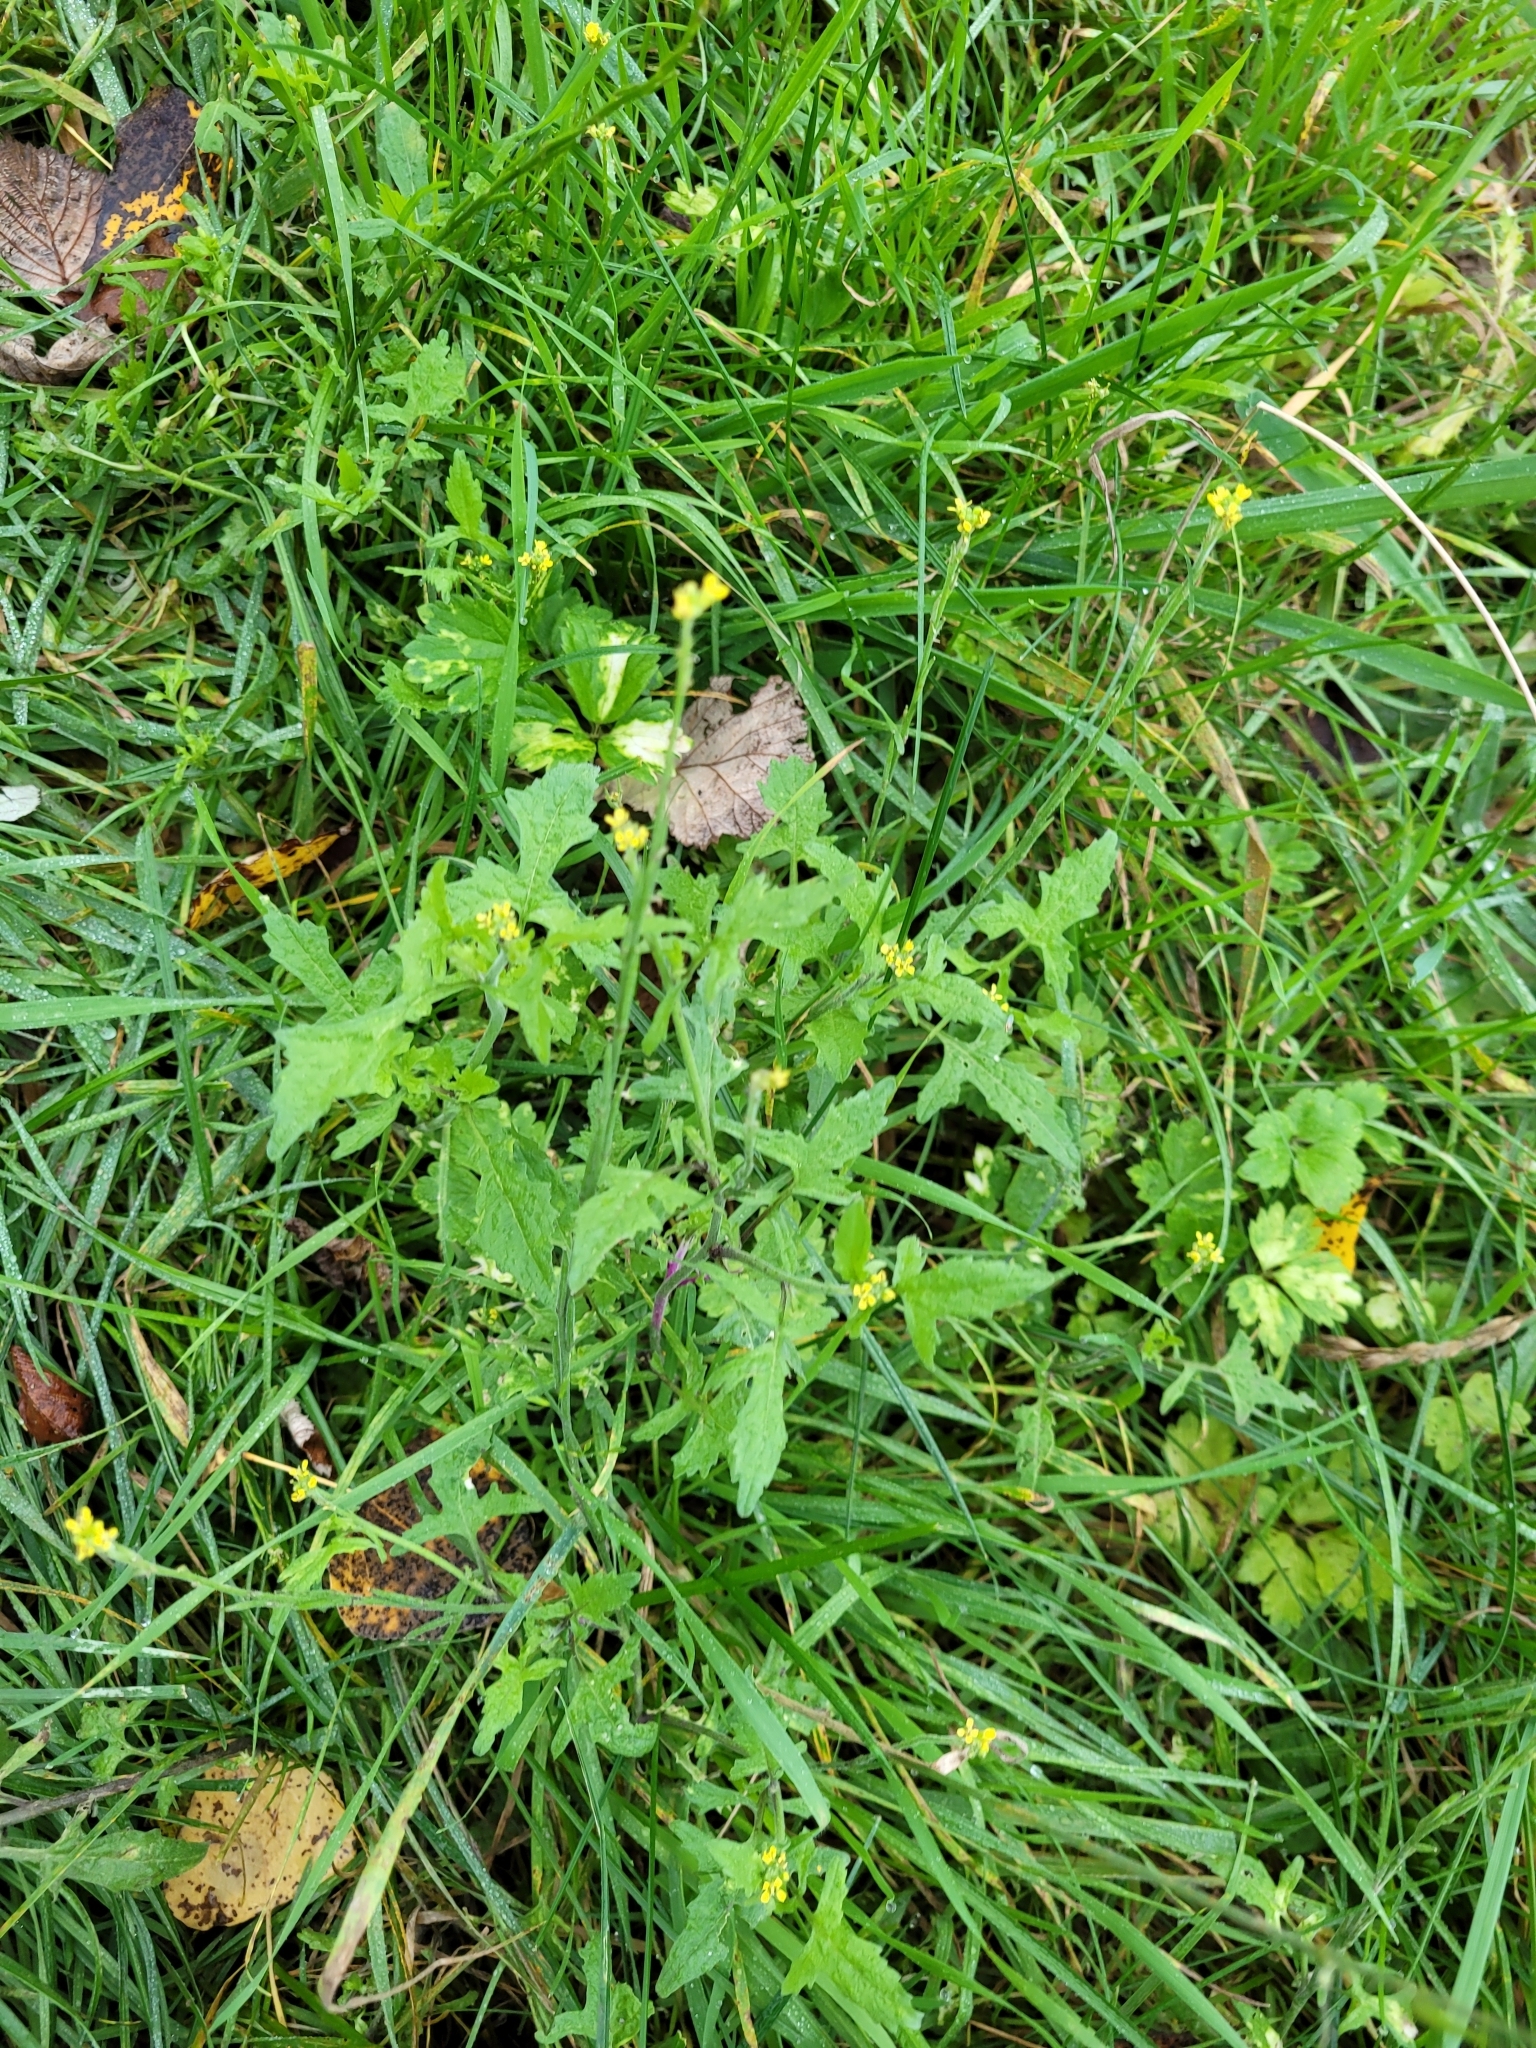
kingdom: Plantae
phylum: Tracheophyta
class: Magnoliopsida
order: Brassicales
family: Brassicaceae
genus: Sisymbrium
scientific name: Sisymbrium officinale
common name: Hedge mustard
